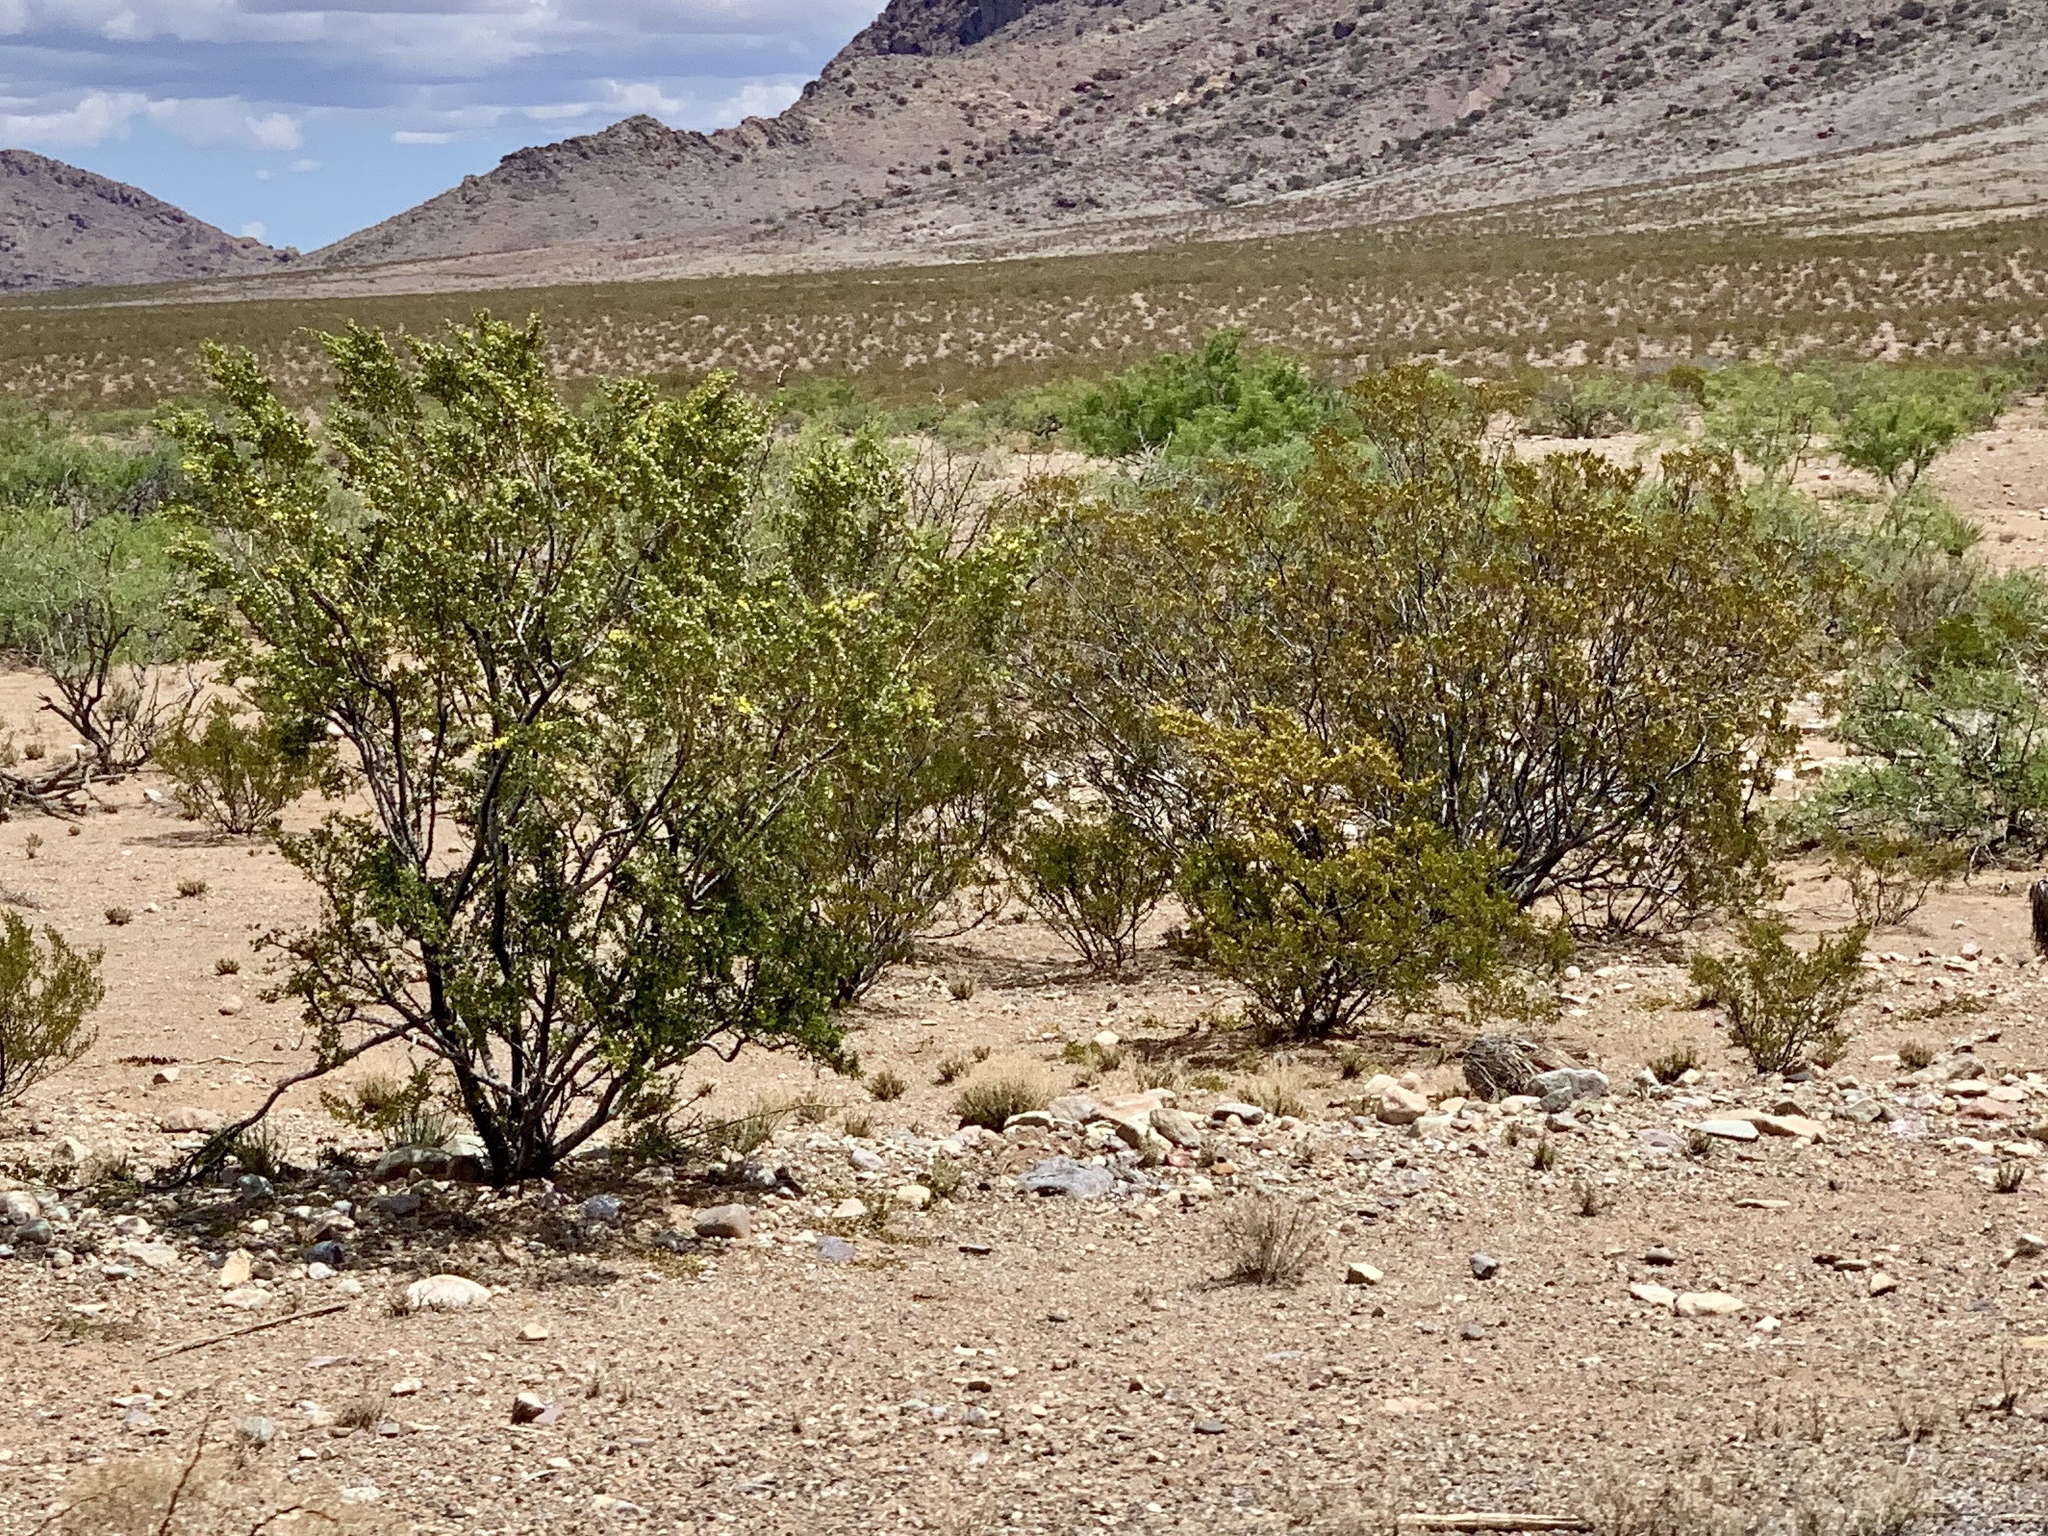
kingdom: Plantae
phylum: Tracheophyta
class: Magnoliopsida
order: Zygophyllales
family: Zygophyllaceae
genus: Larrea
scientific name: Larrea tridentata
